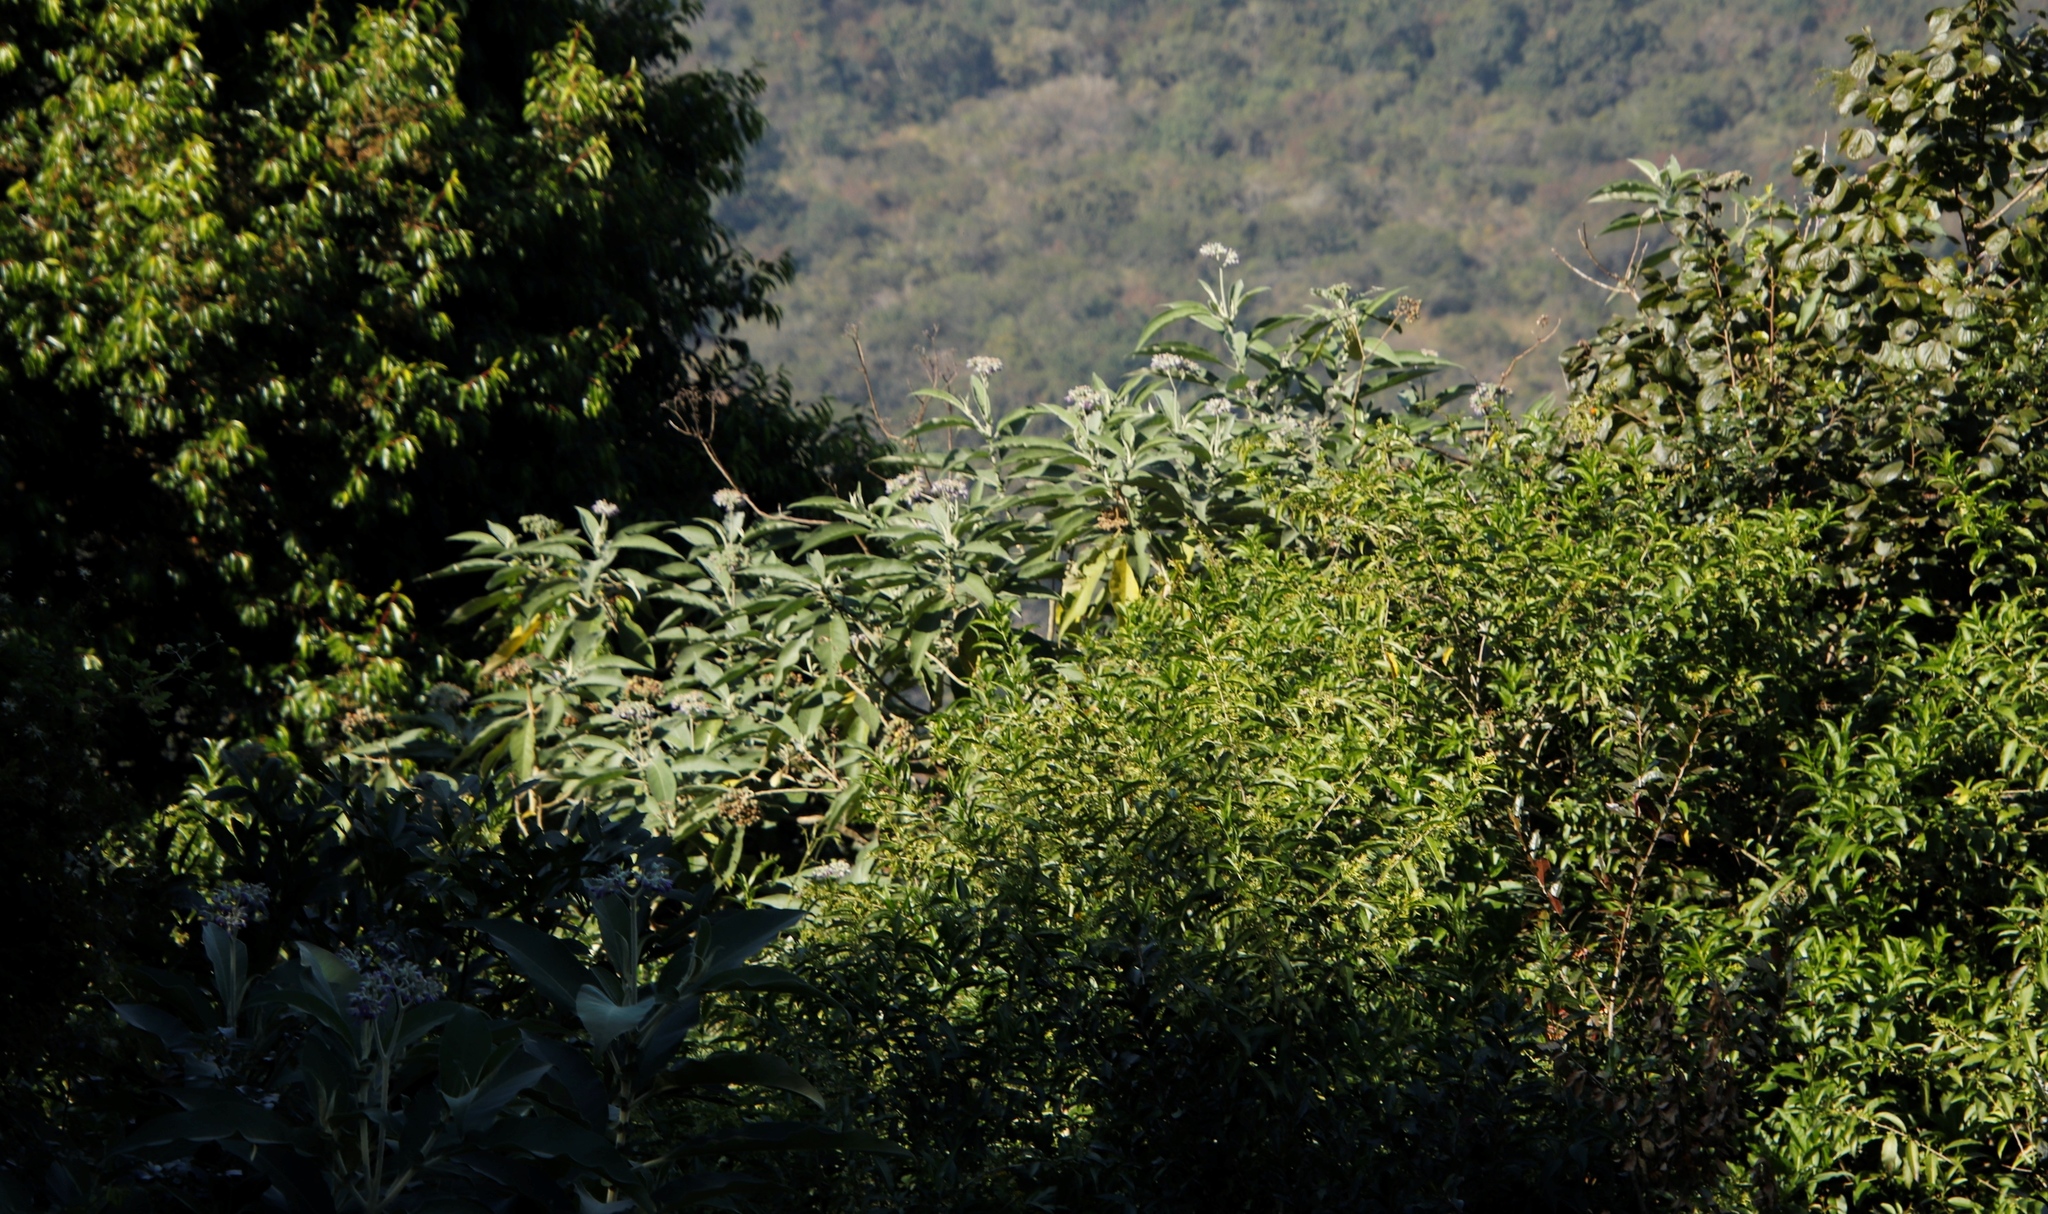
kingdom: Plantae
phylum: Tracheophyta
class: Magnoliopsida
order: Solanales
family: Solanaceae
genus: Solanum
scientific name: Solanum mauritianum
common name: Earleaf nightshade
